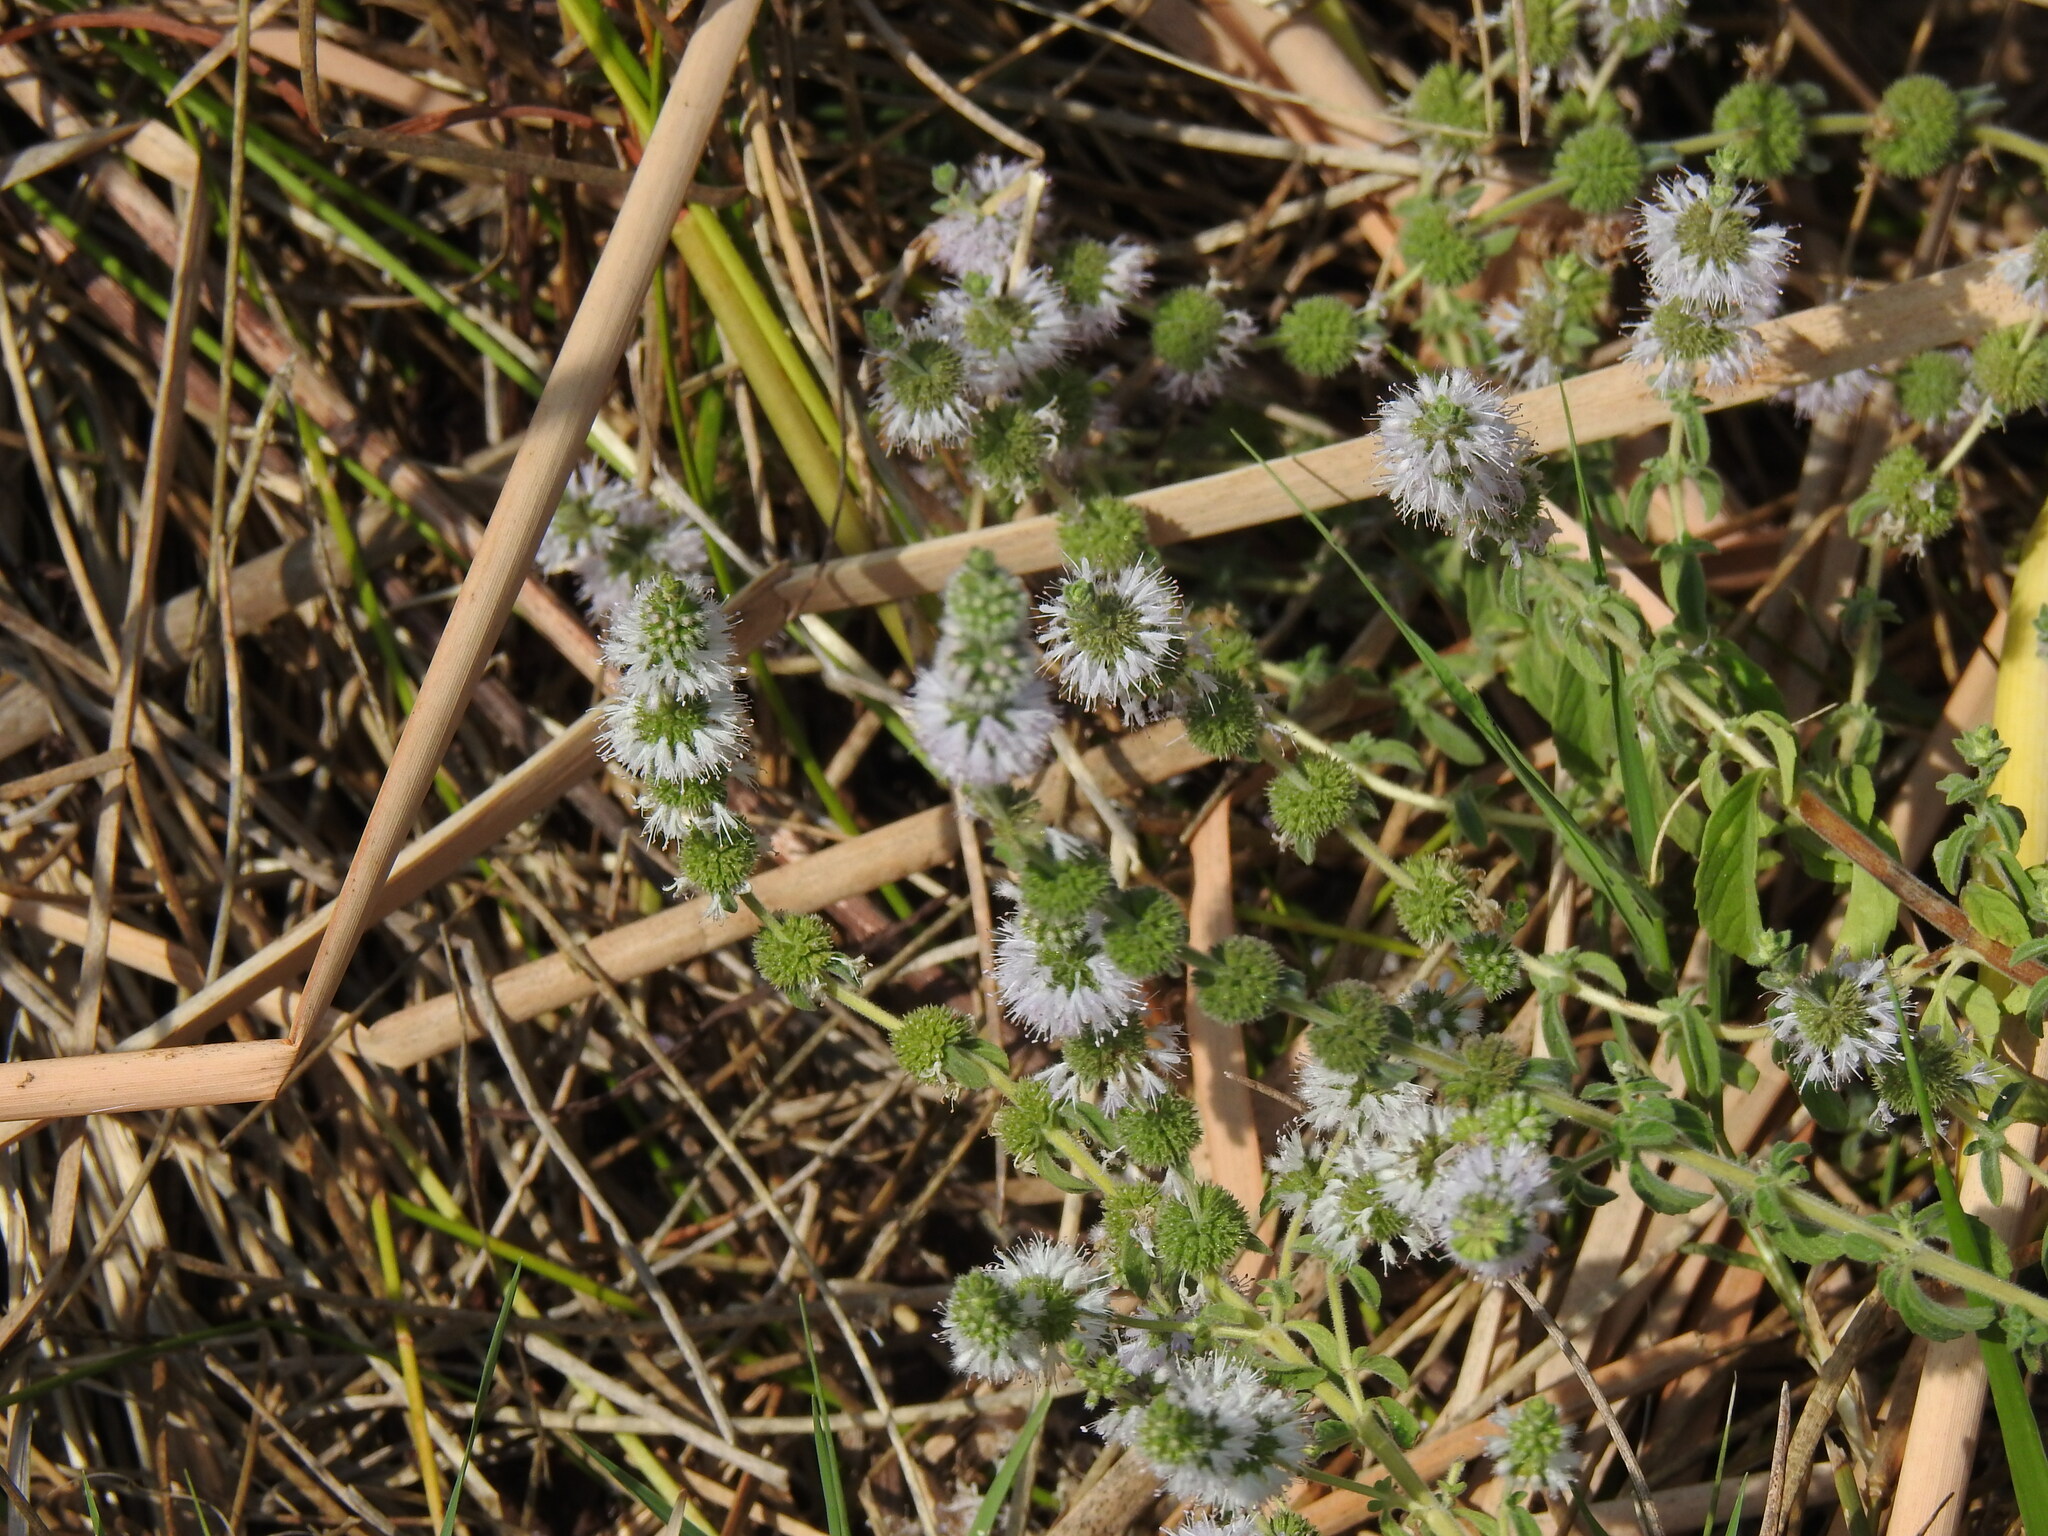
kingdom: Plantae
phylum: Tracheophyta
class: Magnoliopsida
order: Lamiales
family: Lamiaceae
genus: Mentha
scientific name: Mentha pulegium
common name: Pennyroyal
